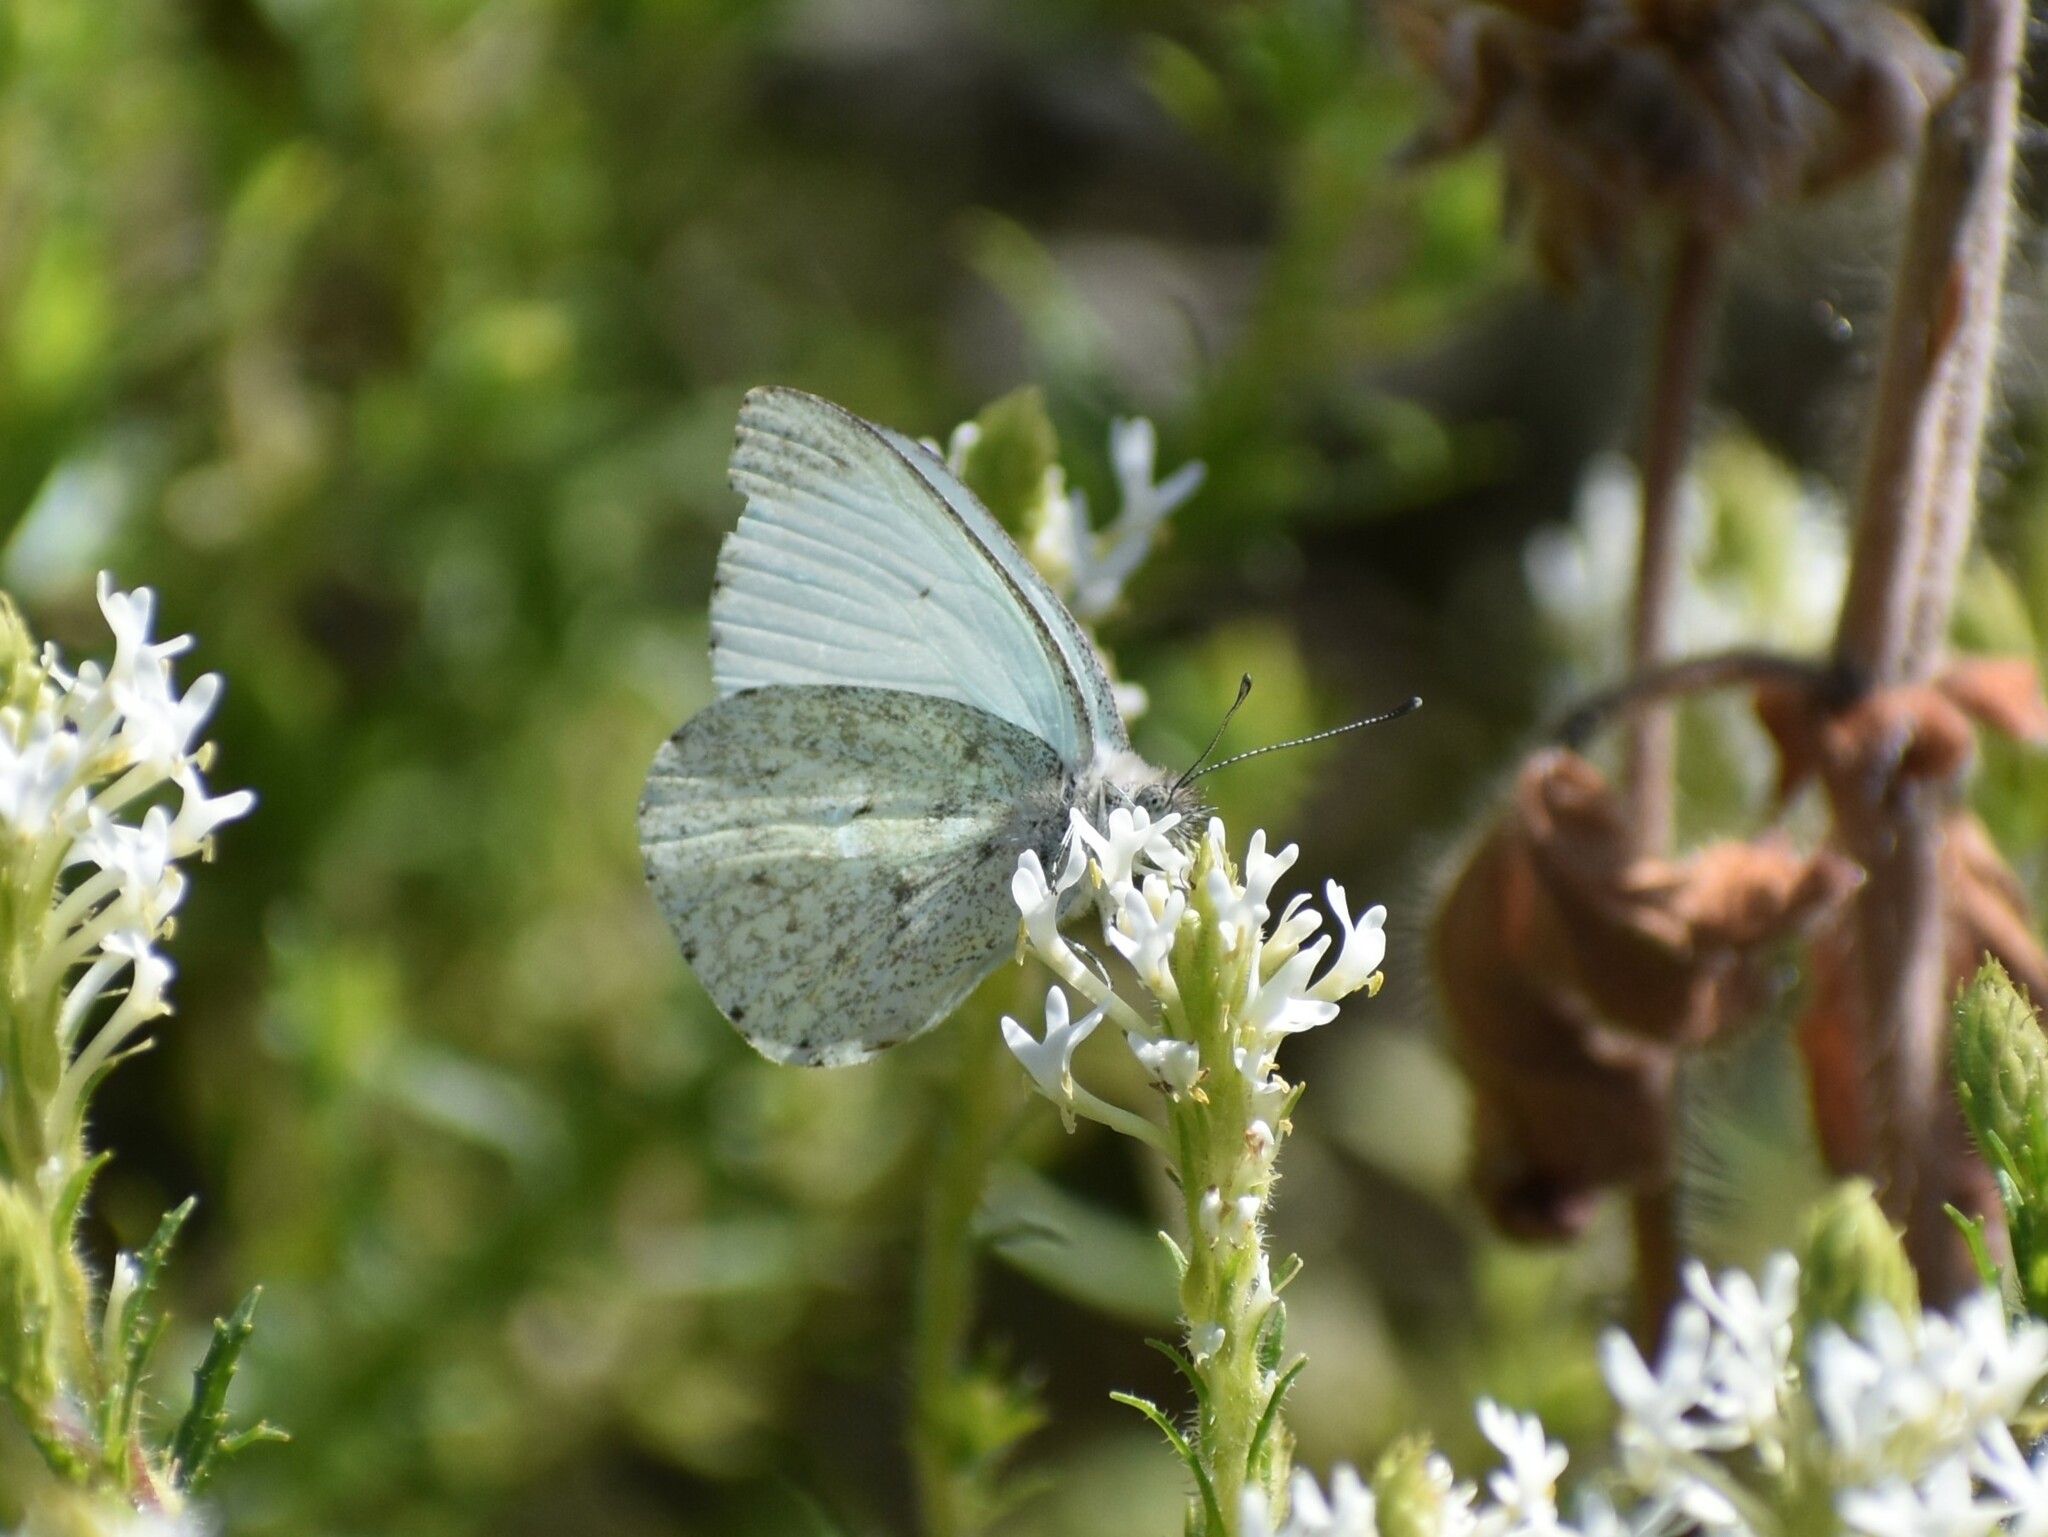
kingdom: Animalia
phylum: Arthropoda
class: Insecta
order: Lepidoptera
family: Pieridae
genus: Dixeia
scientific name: Dixeia charina
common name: African small white
